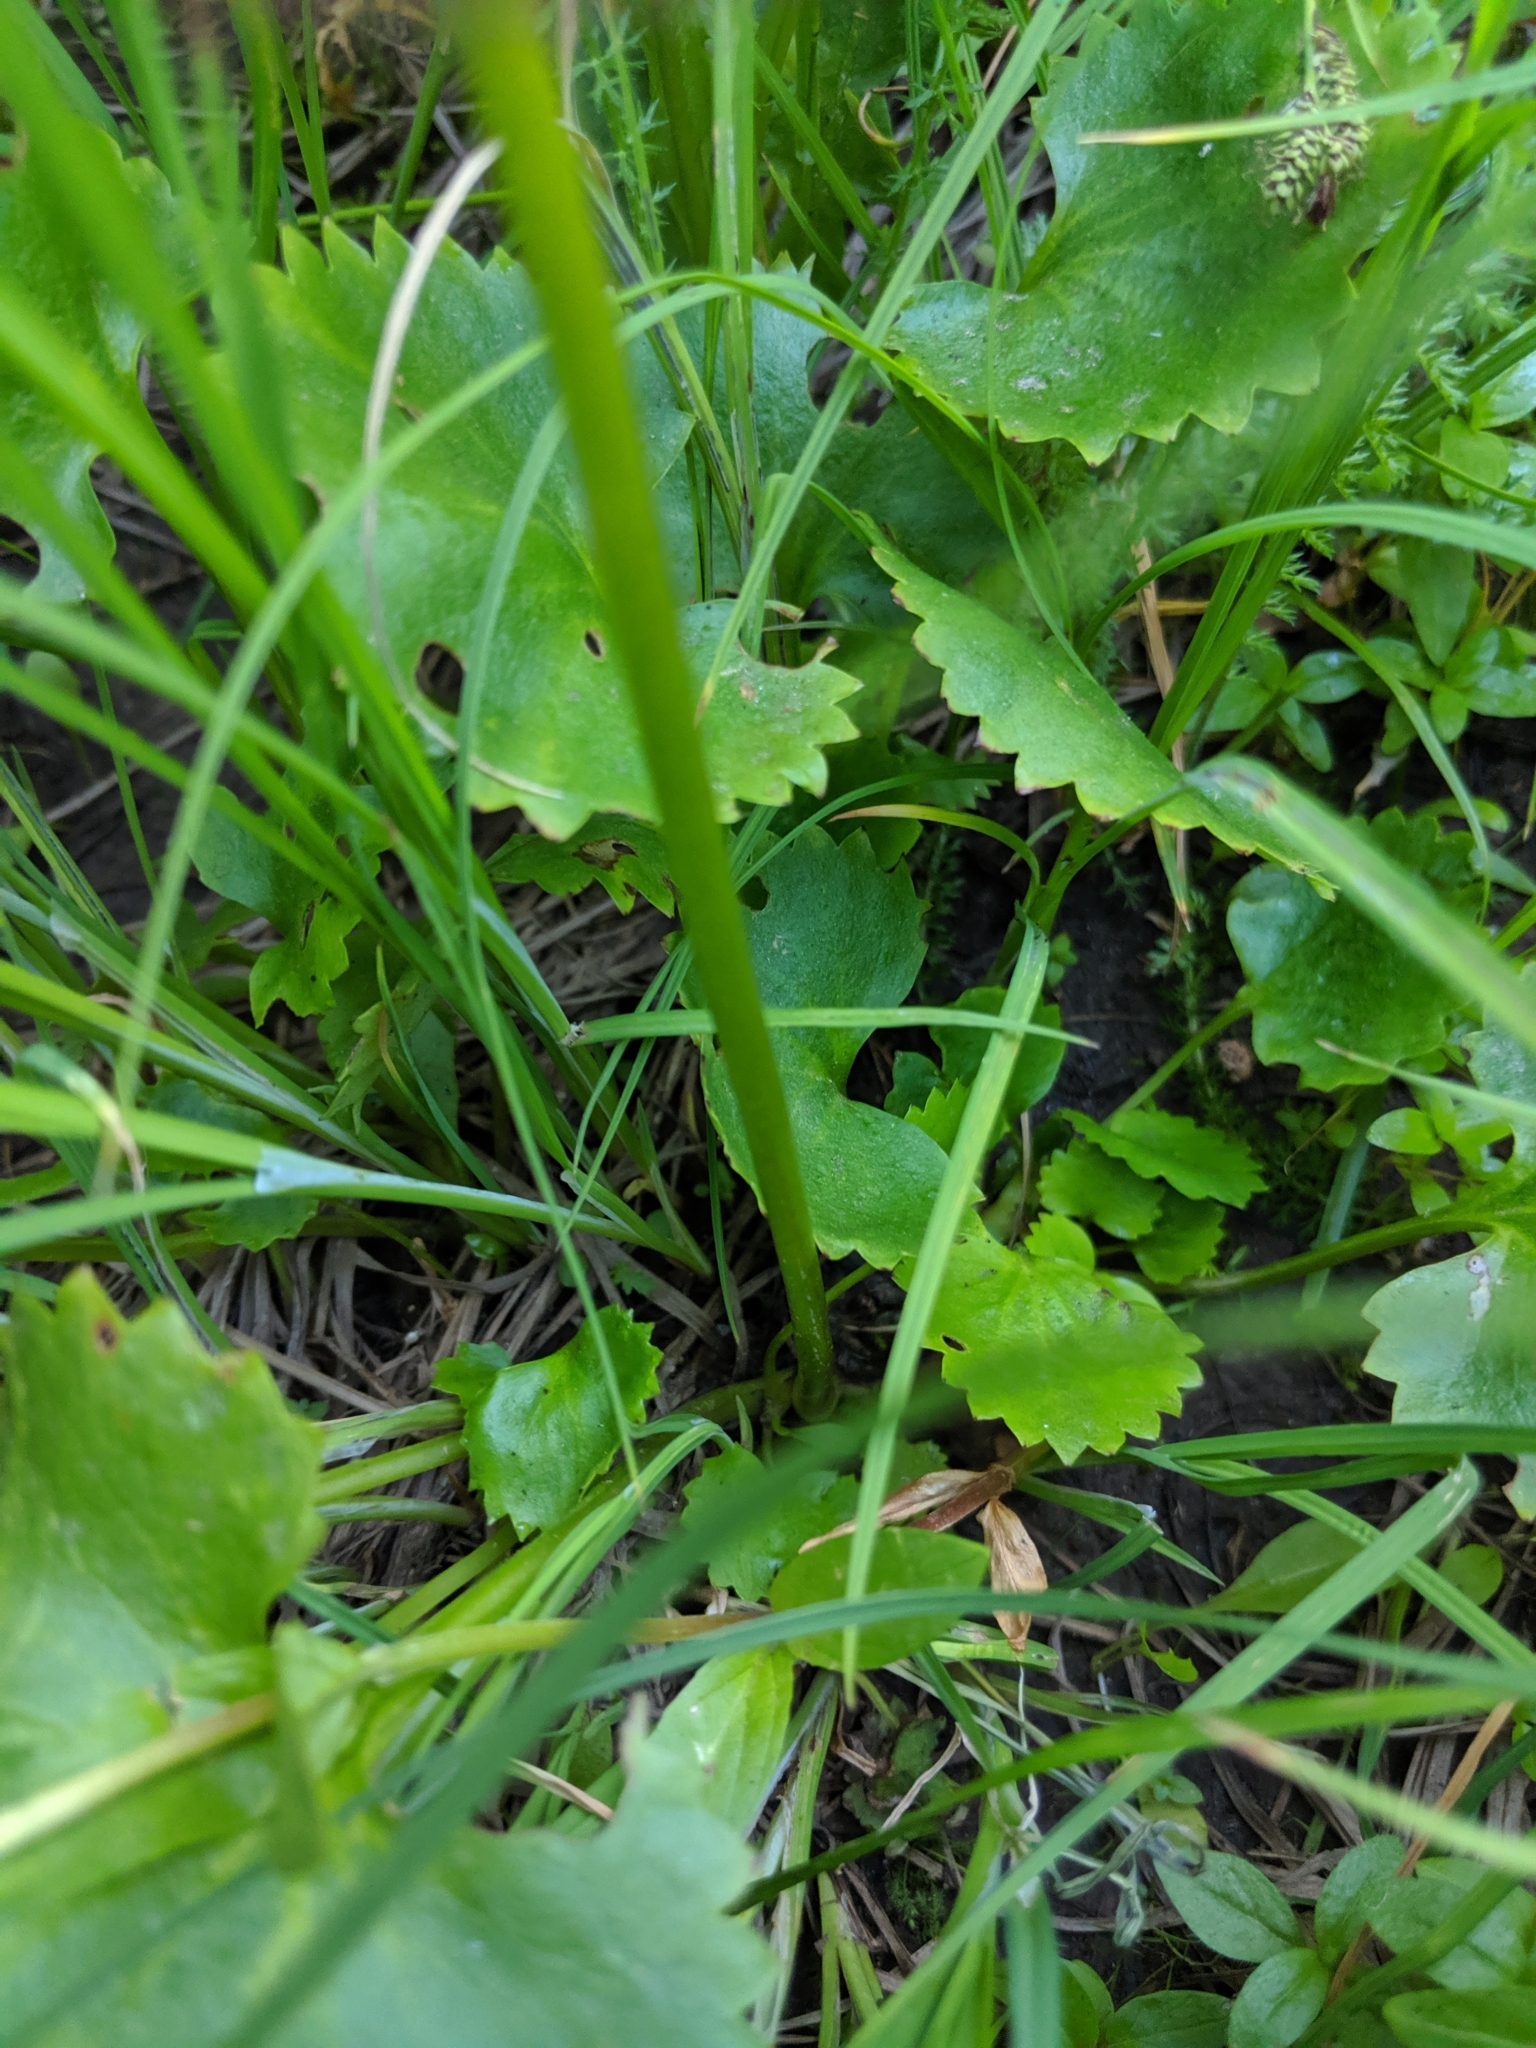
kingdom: Plantae
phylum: Tracheophyta
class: Magnoliopsida
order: Saxifragales
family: Saxifragaceae
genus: Micranthes
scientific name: Micranthes odontoloma
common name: Brook saxifrage
